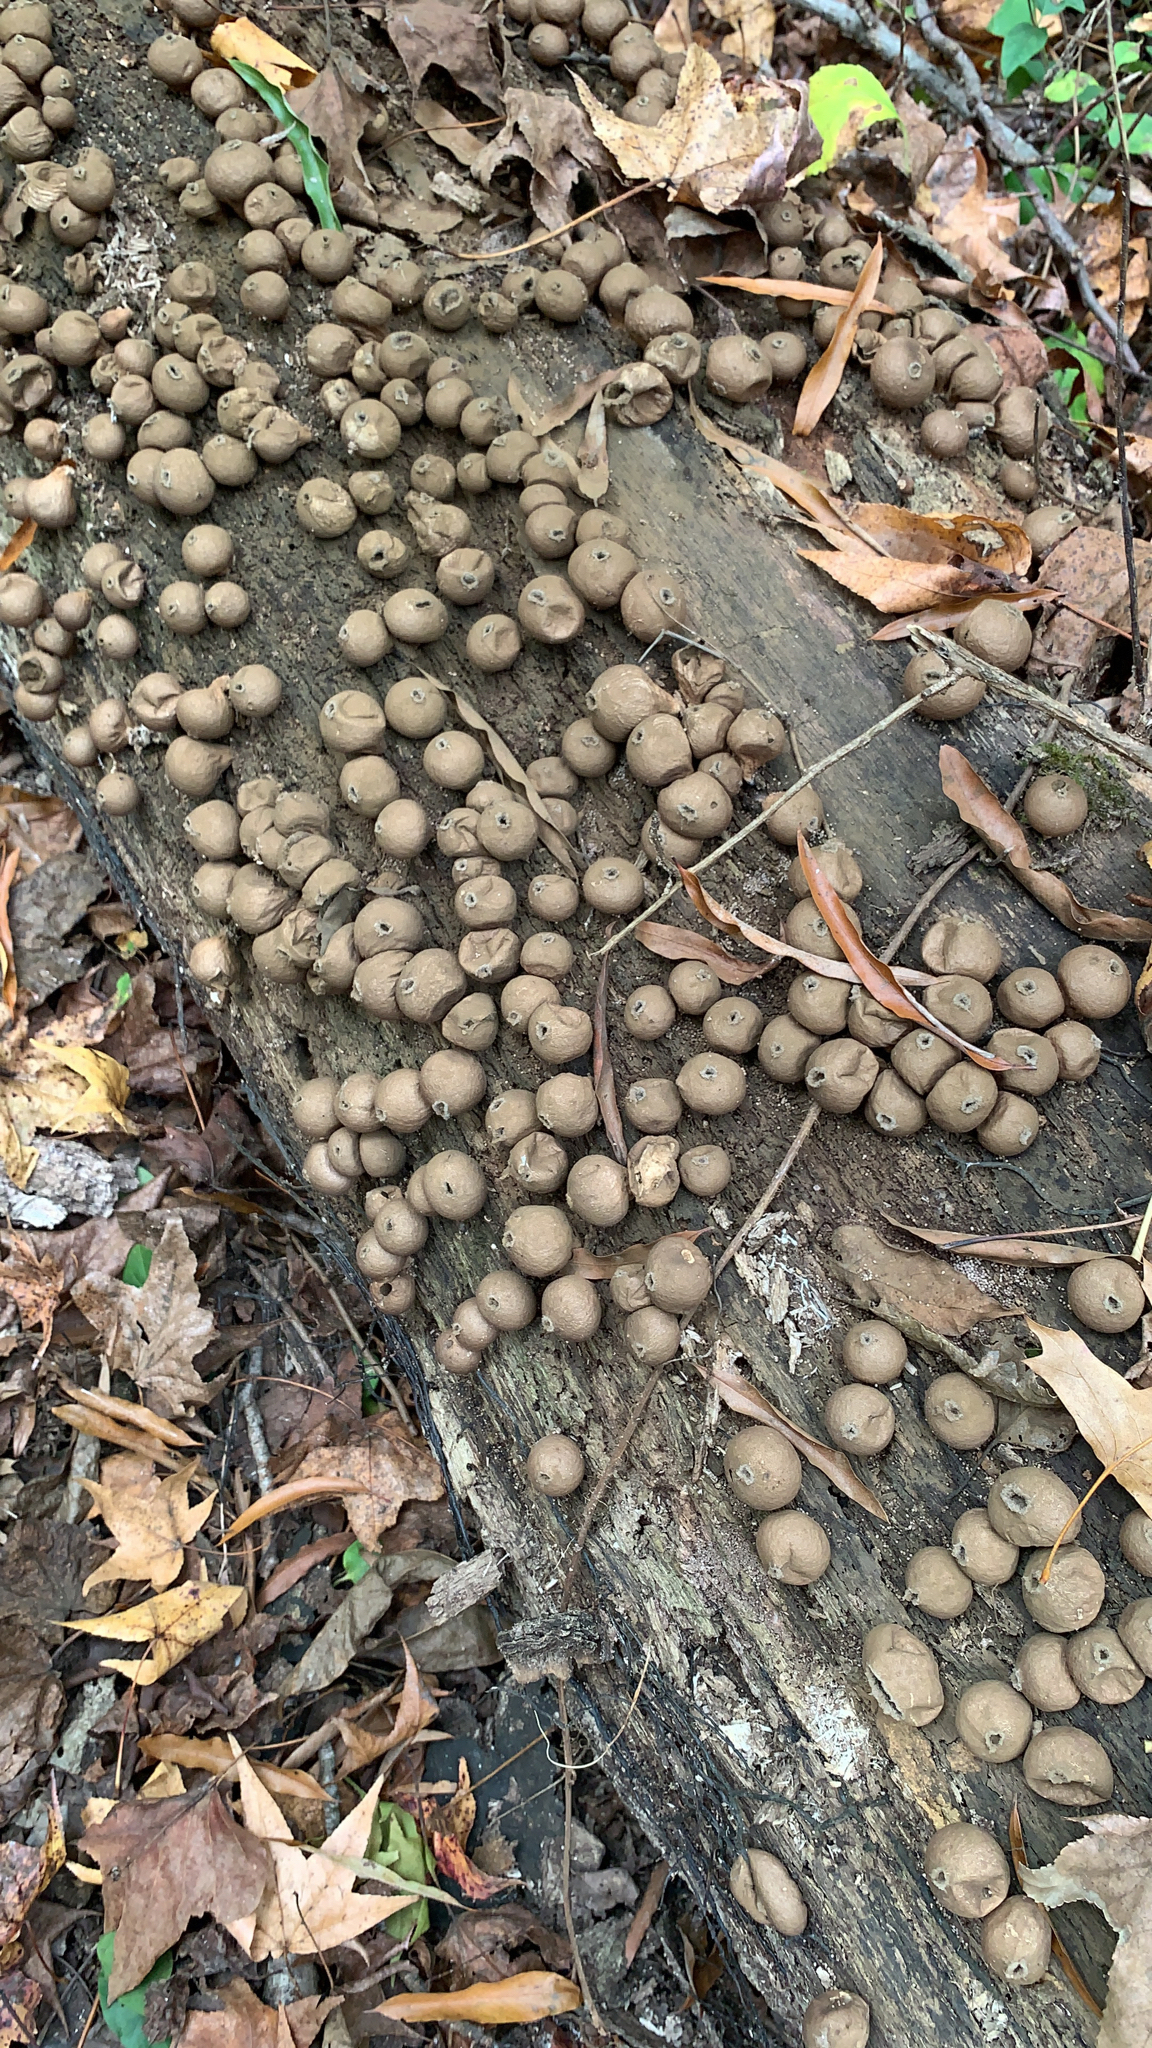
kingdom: Fungi
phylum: Basidiomycota
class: Agaricomycetes
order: Agaricales
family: Lycoperdaceae
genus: Apioperdon
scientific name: Apioperdon pyriforme
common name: Pear-shaped puffball
